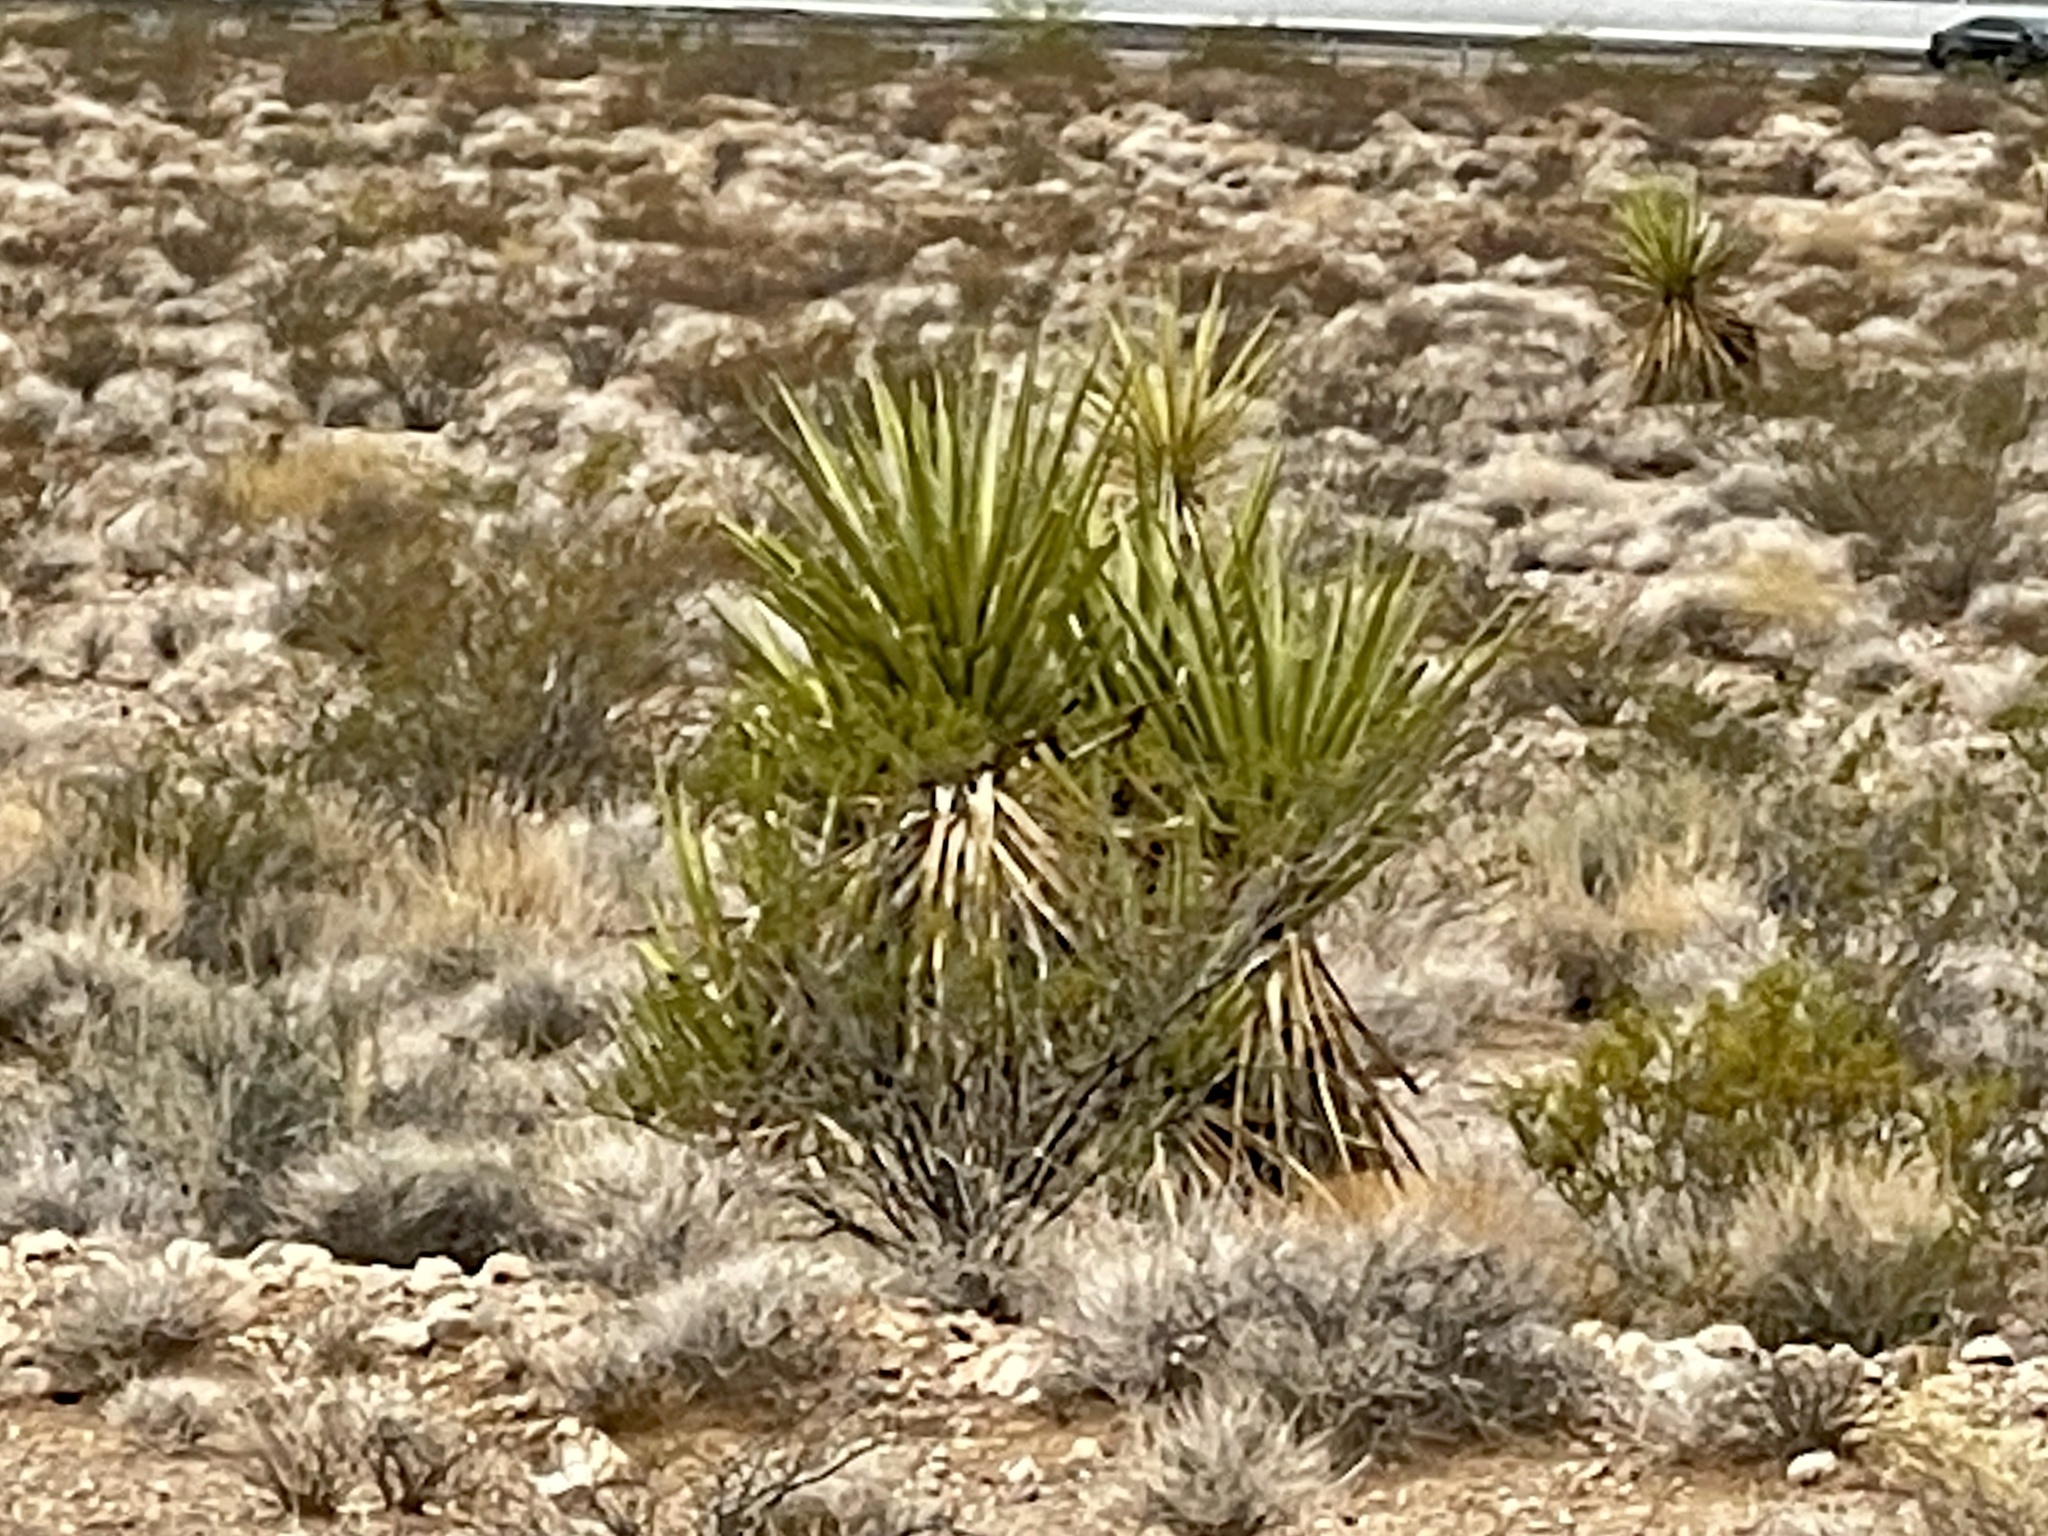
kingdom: Plantae
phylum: Tracheophyta
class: Liliopsida
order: Asparagales
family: Asparagaceae
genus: Yucca
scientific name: Yucca schidigera
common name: Mojave yucca
